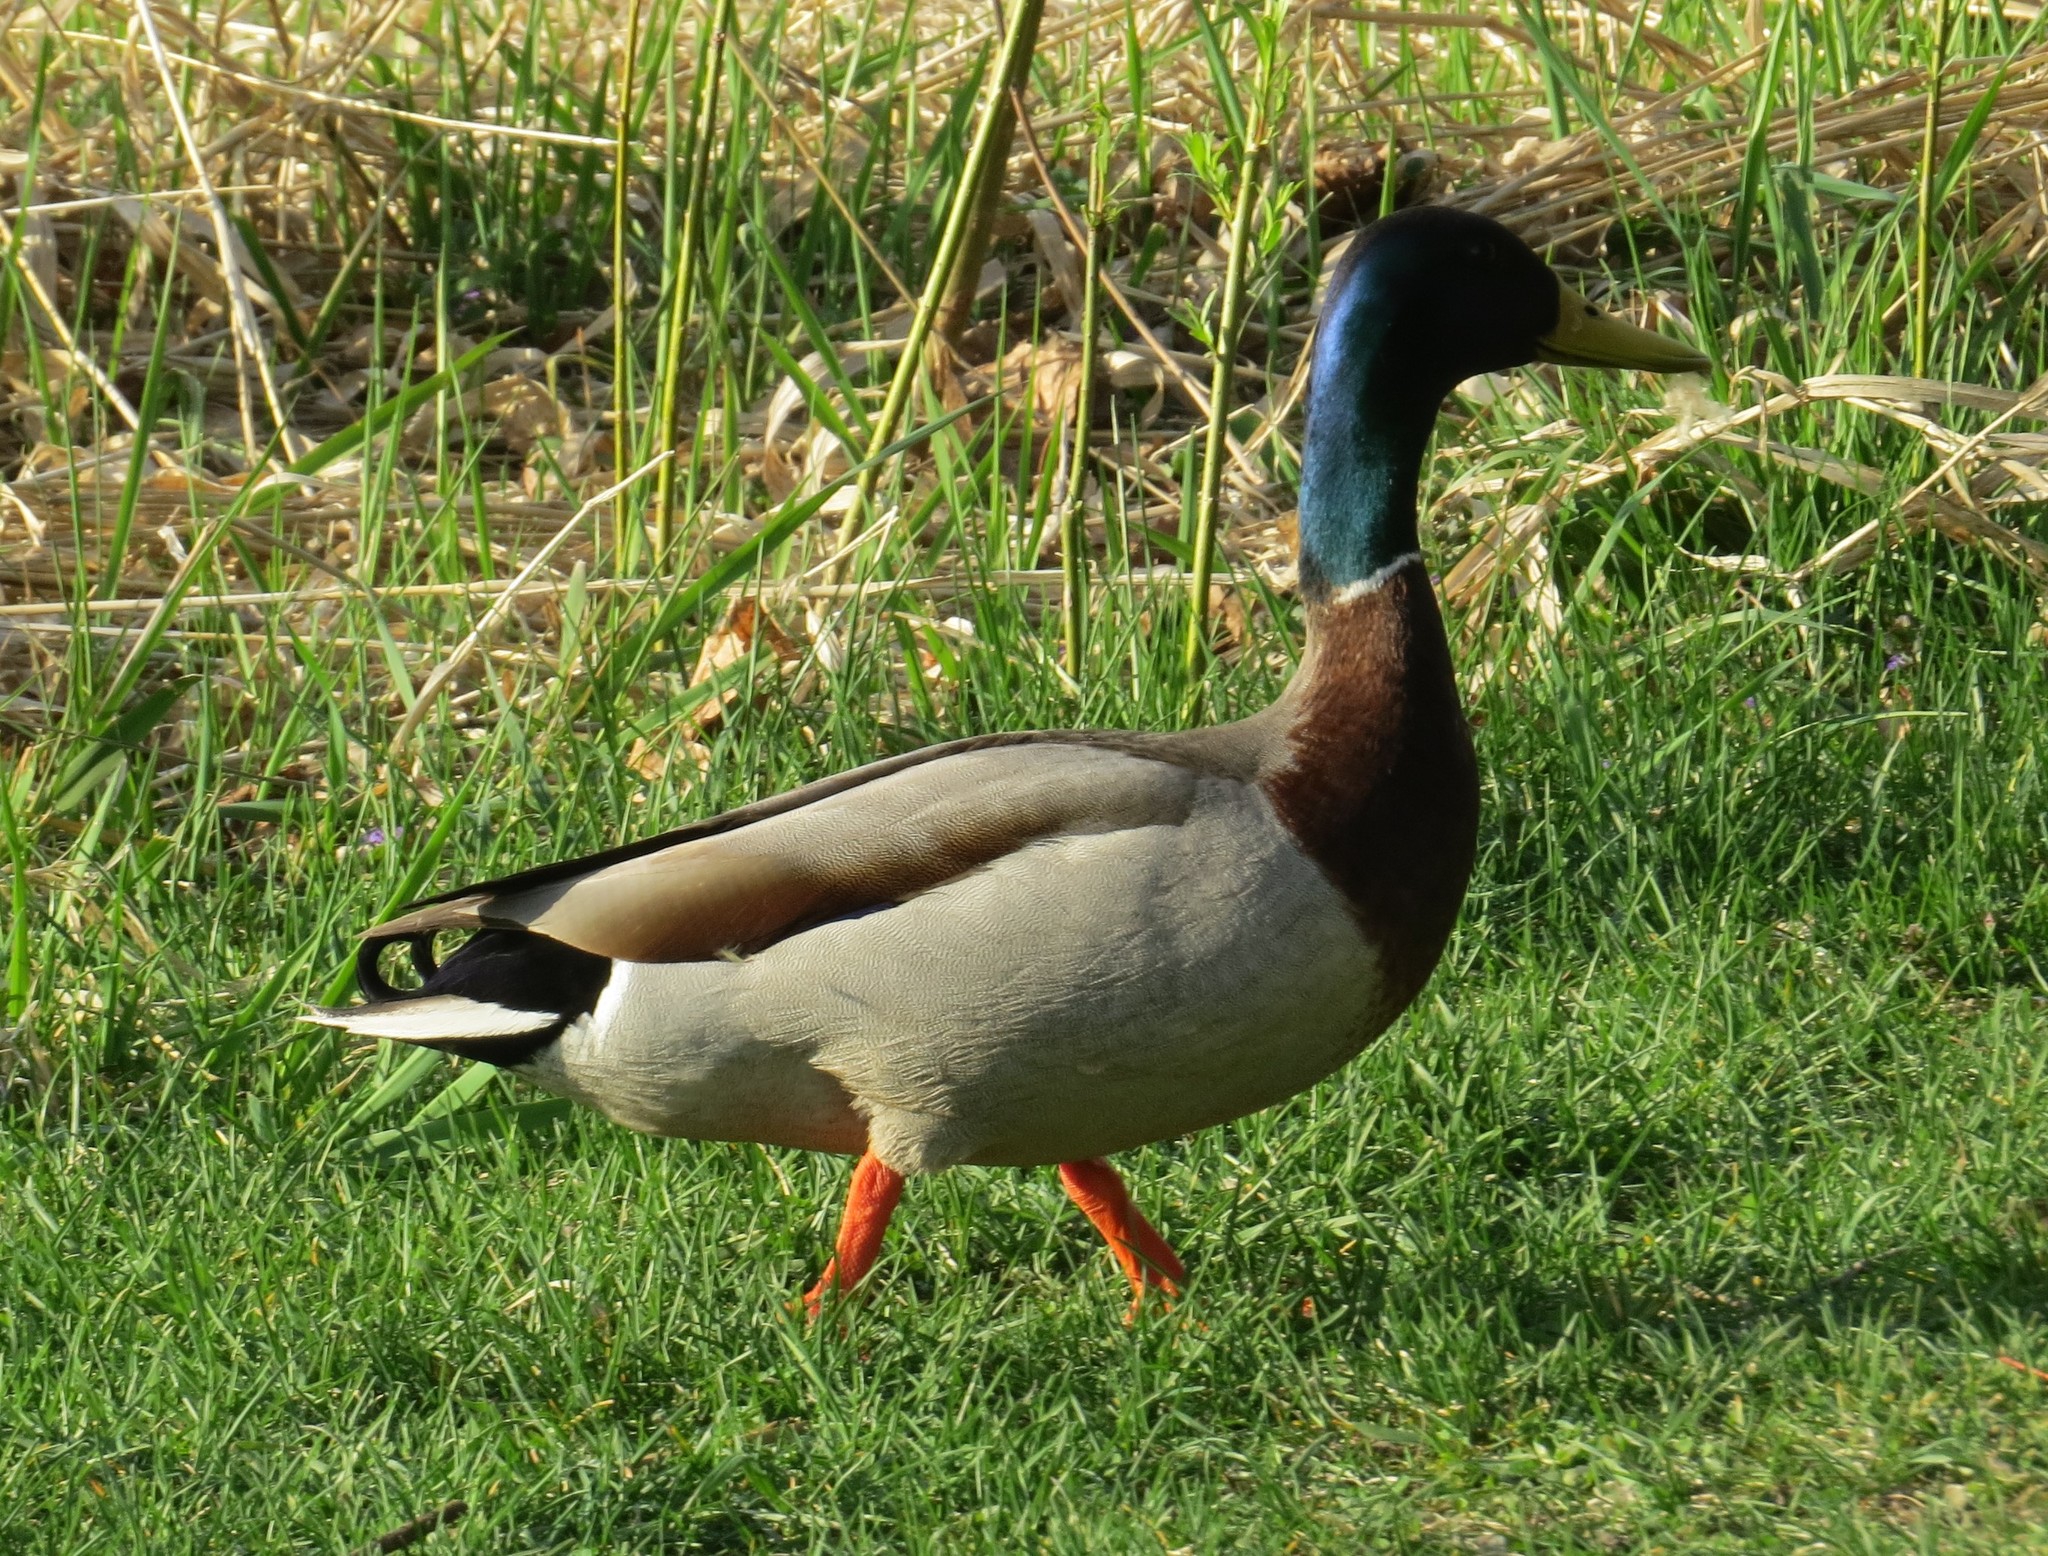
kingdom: Animalia
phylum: Chordata
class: Aves
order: Anseriformes
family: Anatidae
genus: Anas
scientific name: Anas platyrhynchos
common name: Mallard
